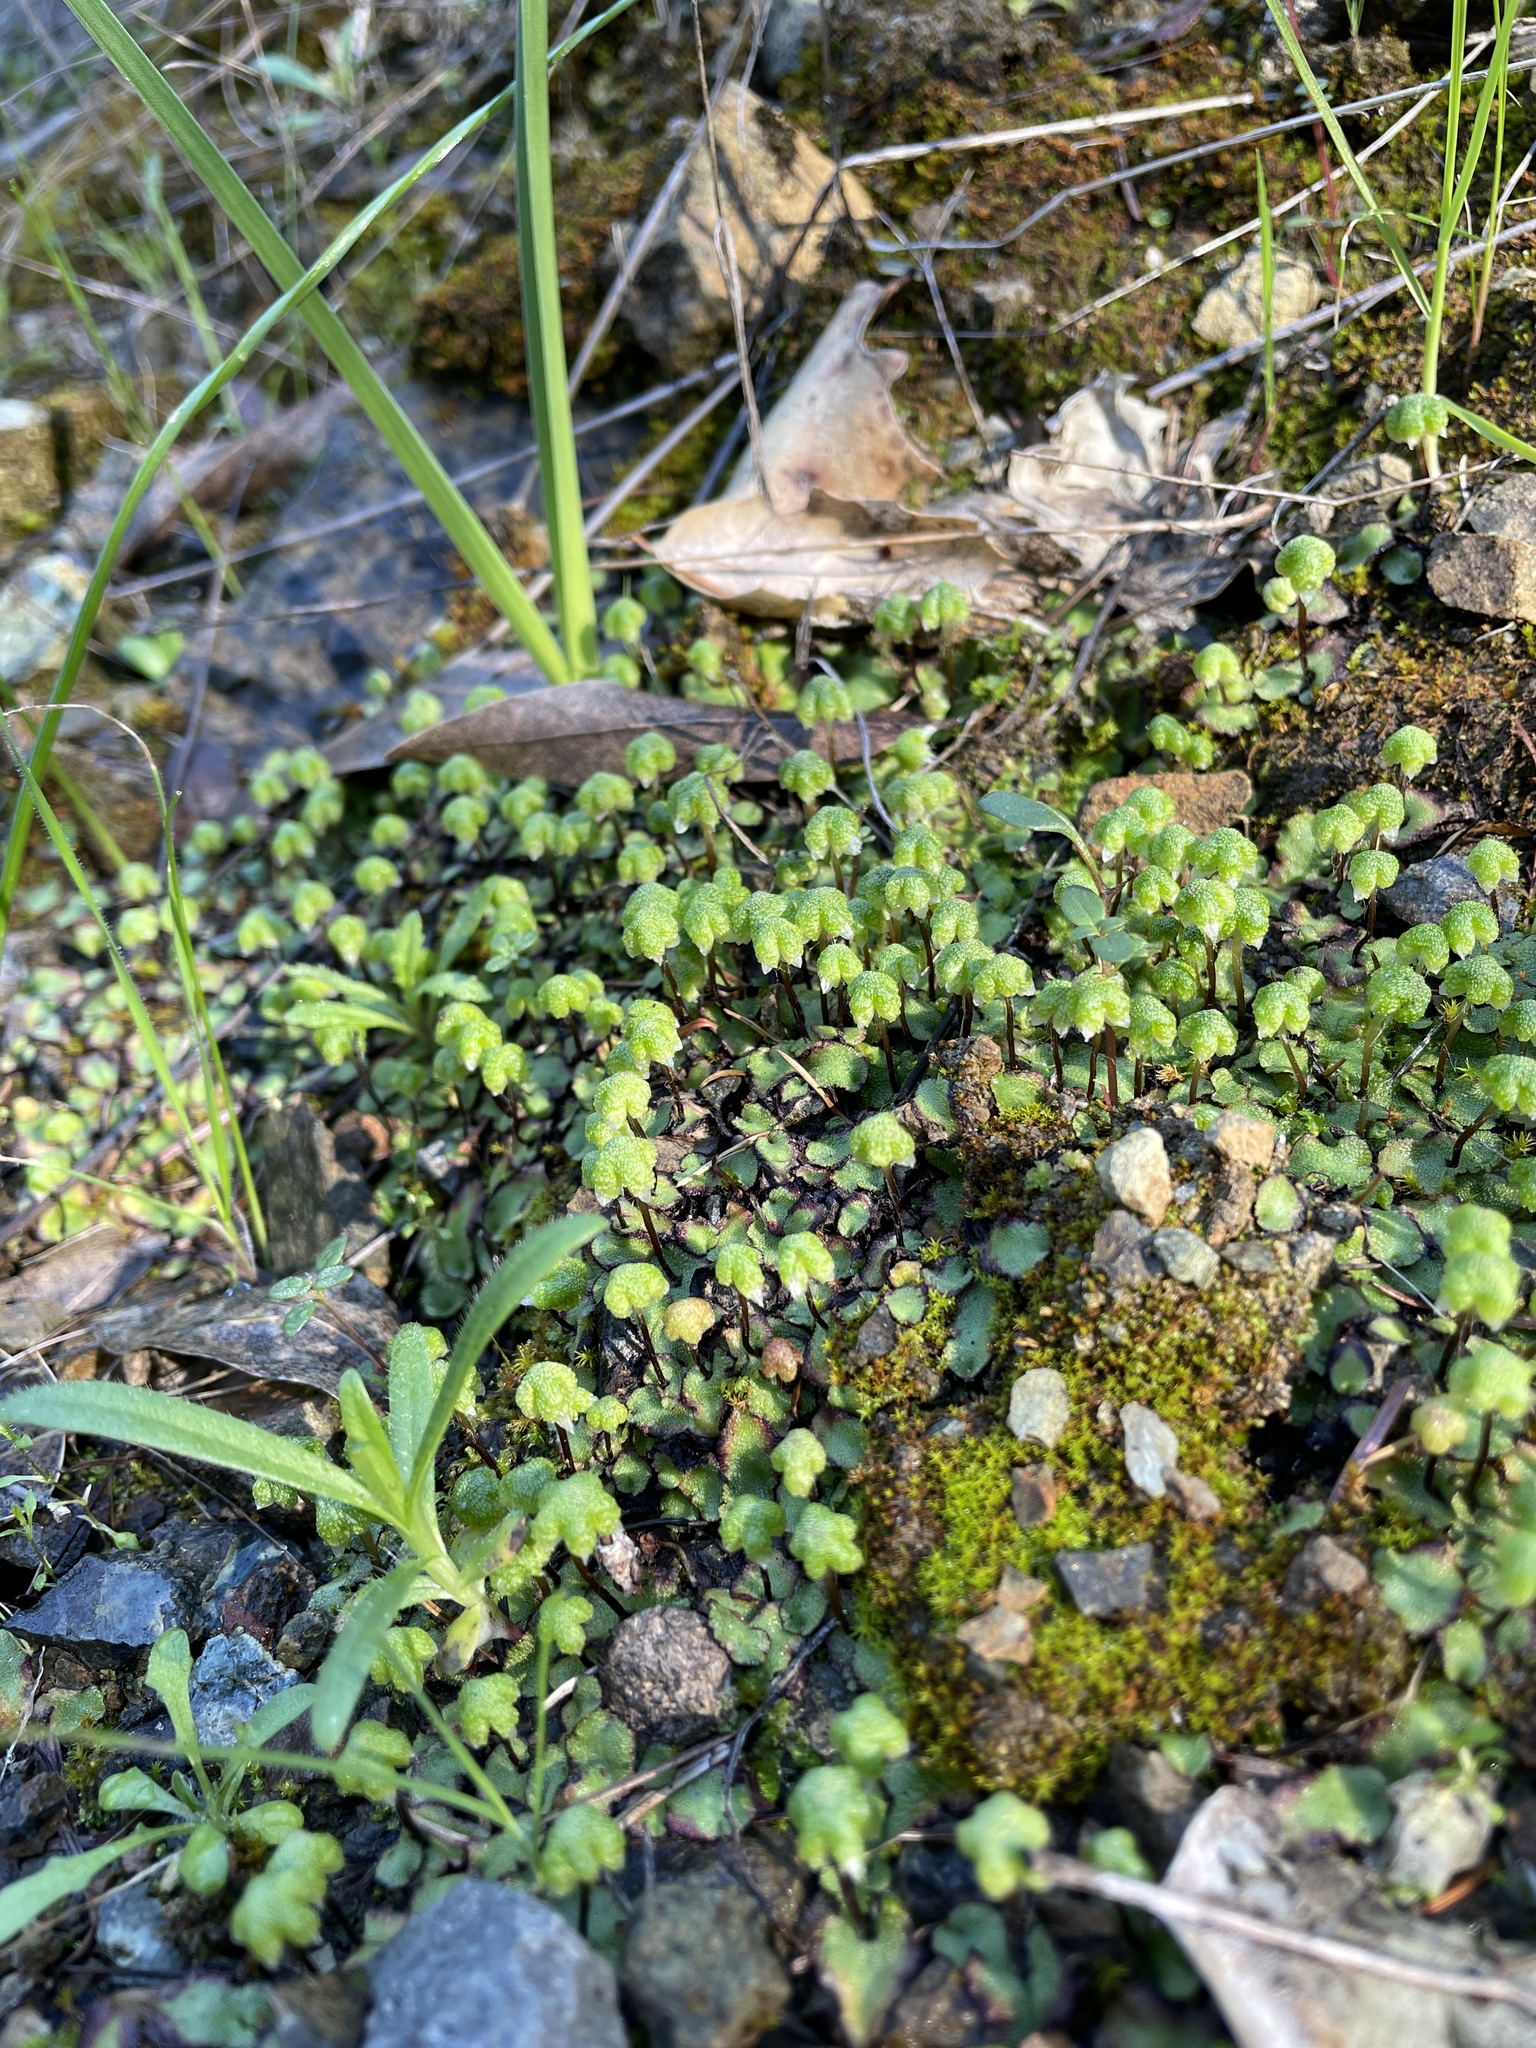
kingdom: Plantae
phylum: Marchantiophyta
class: Marchantiopsida
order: Marchantiales
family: Aytoniaceae
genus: Asterella
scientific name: Asterella californica
